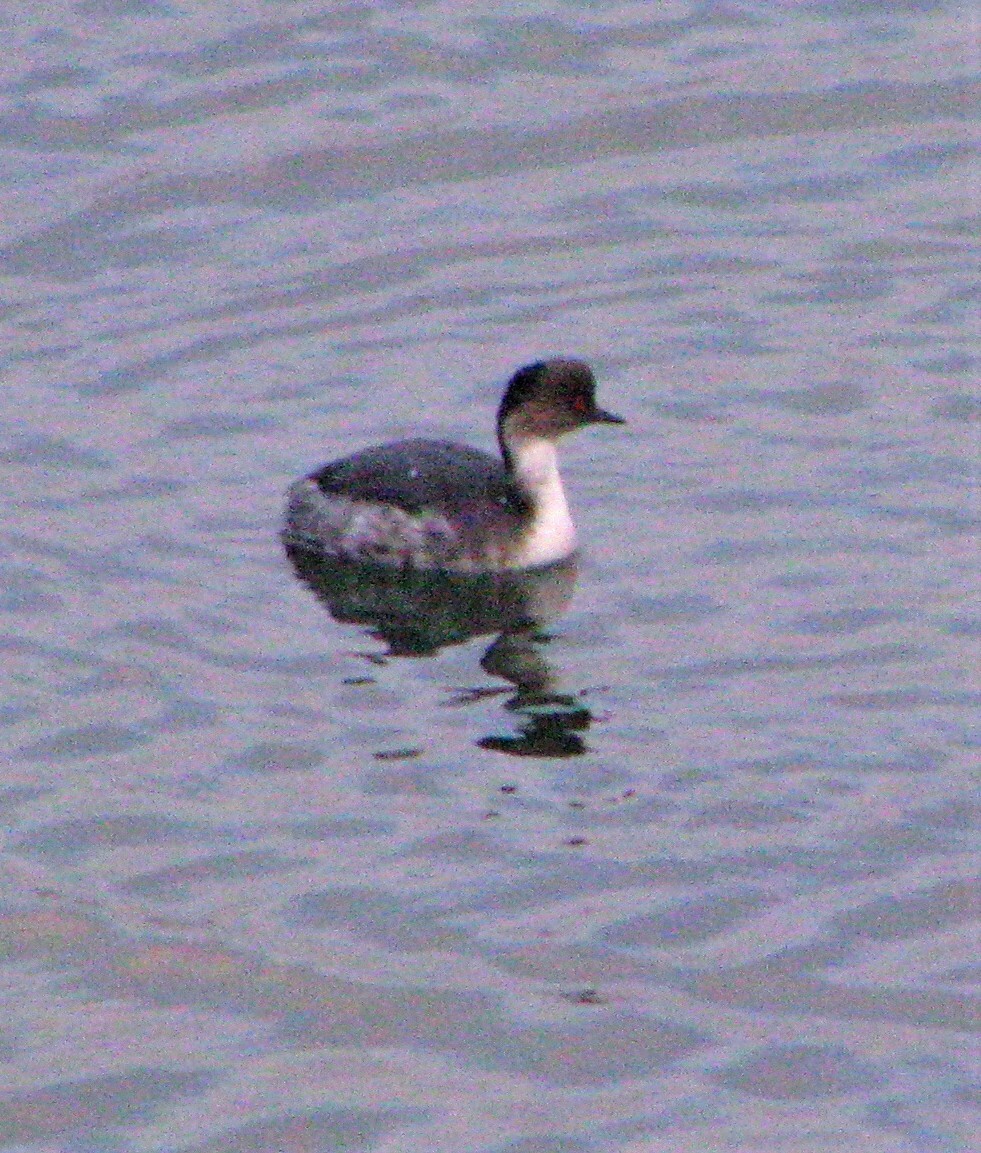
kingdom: Animalia
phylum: Chordata
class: Aves
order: Podicipediformes
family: Podicipedidae
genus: Podiceps
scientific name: Podiceps occipitalis
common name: Silvery grebe
